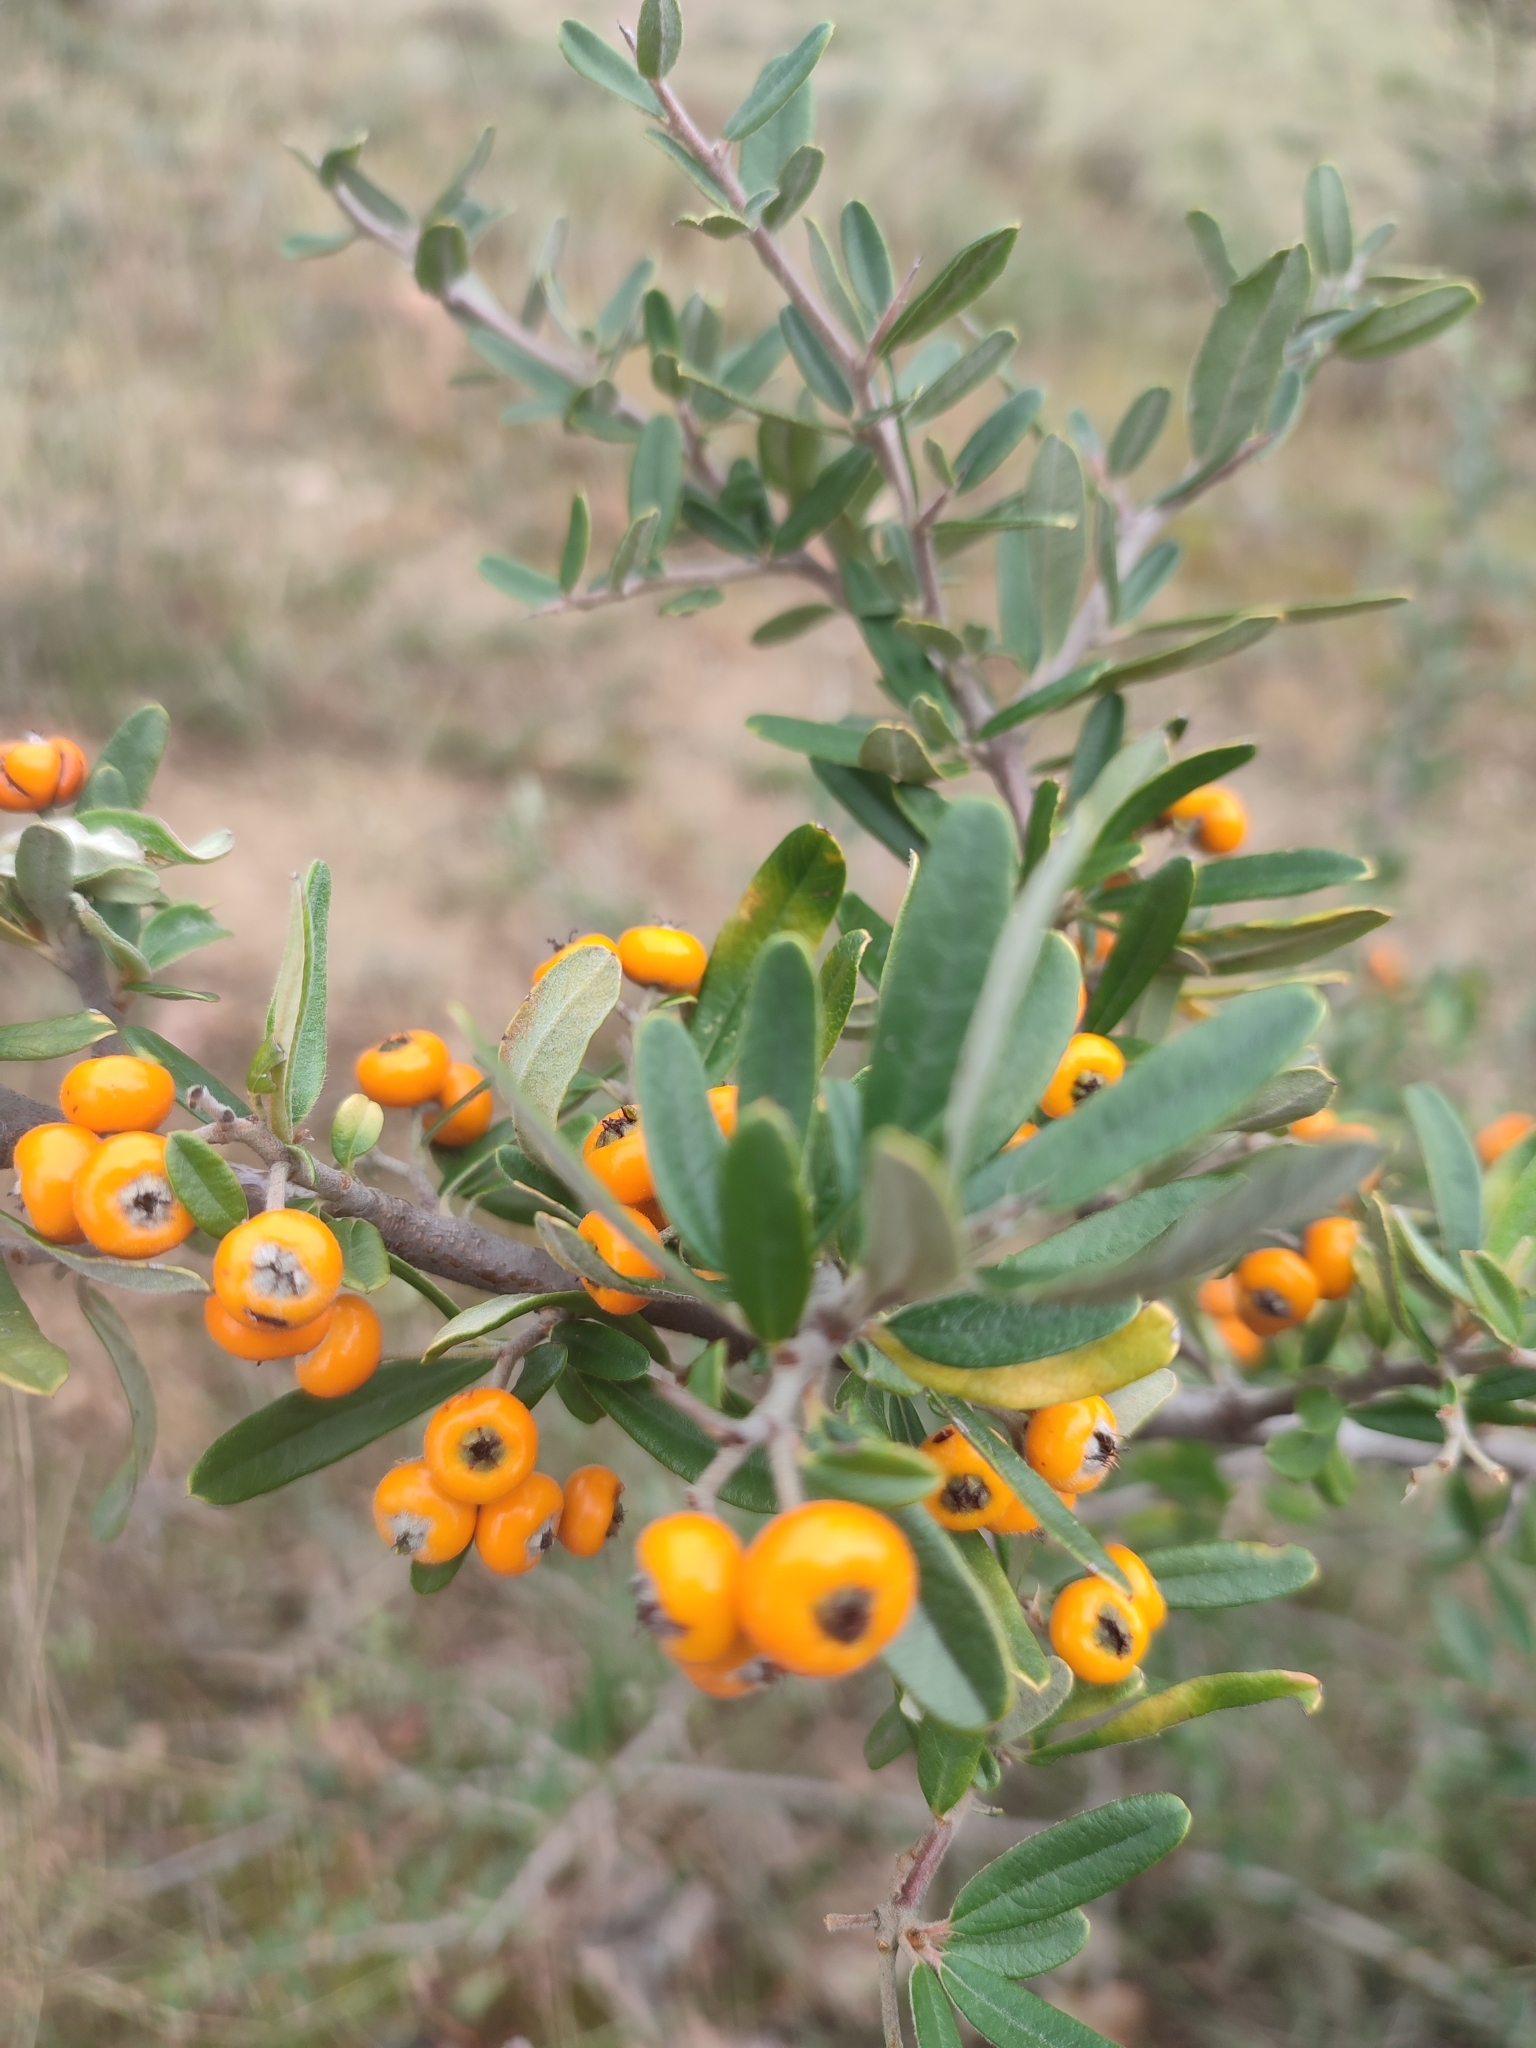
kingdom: Plantae
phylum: Tracheophyta
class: Magnoliopsida
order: Rosales
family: Rosaceae
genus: Pyracantha
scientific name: Pyracantha angustifolia
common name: Narrowleaf firethorn
